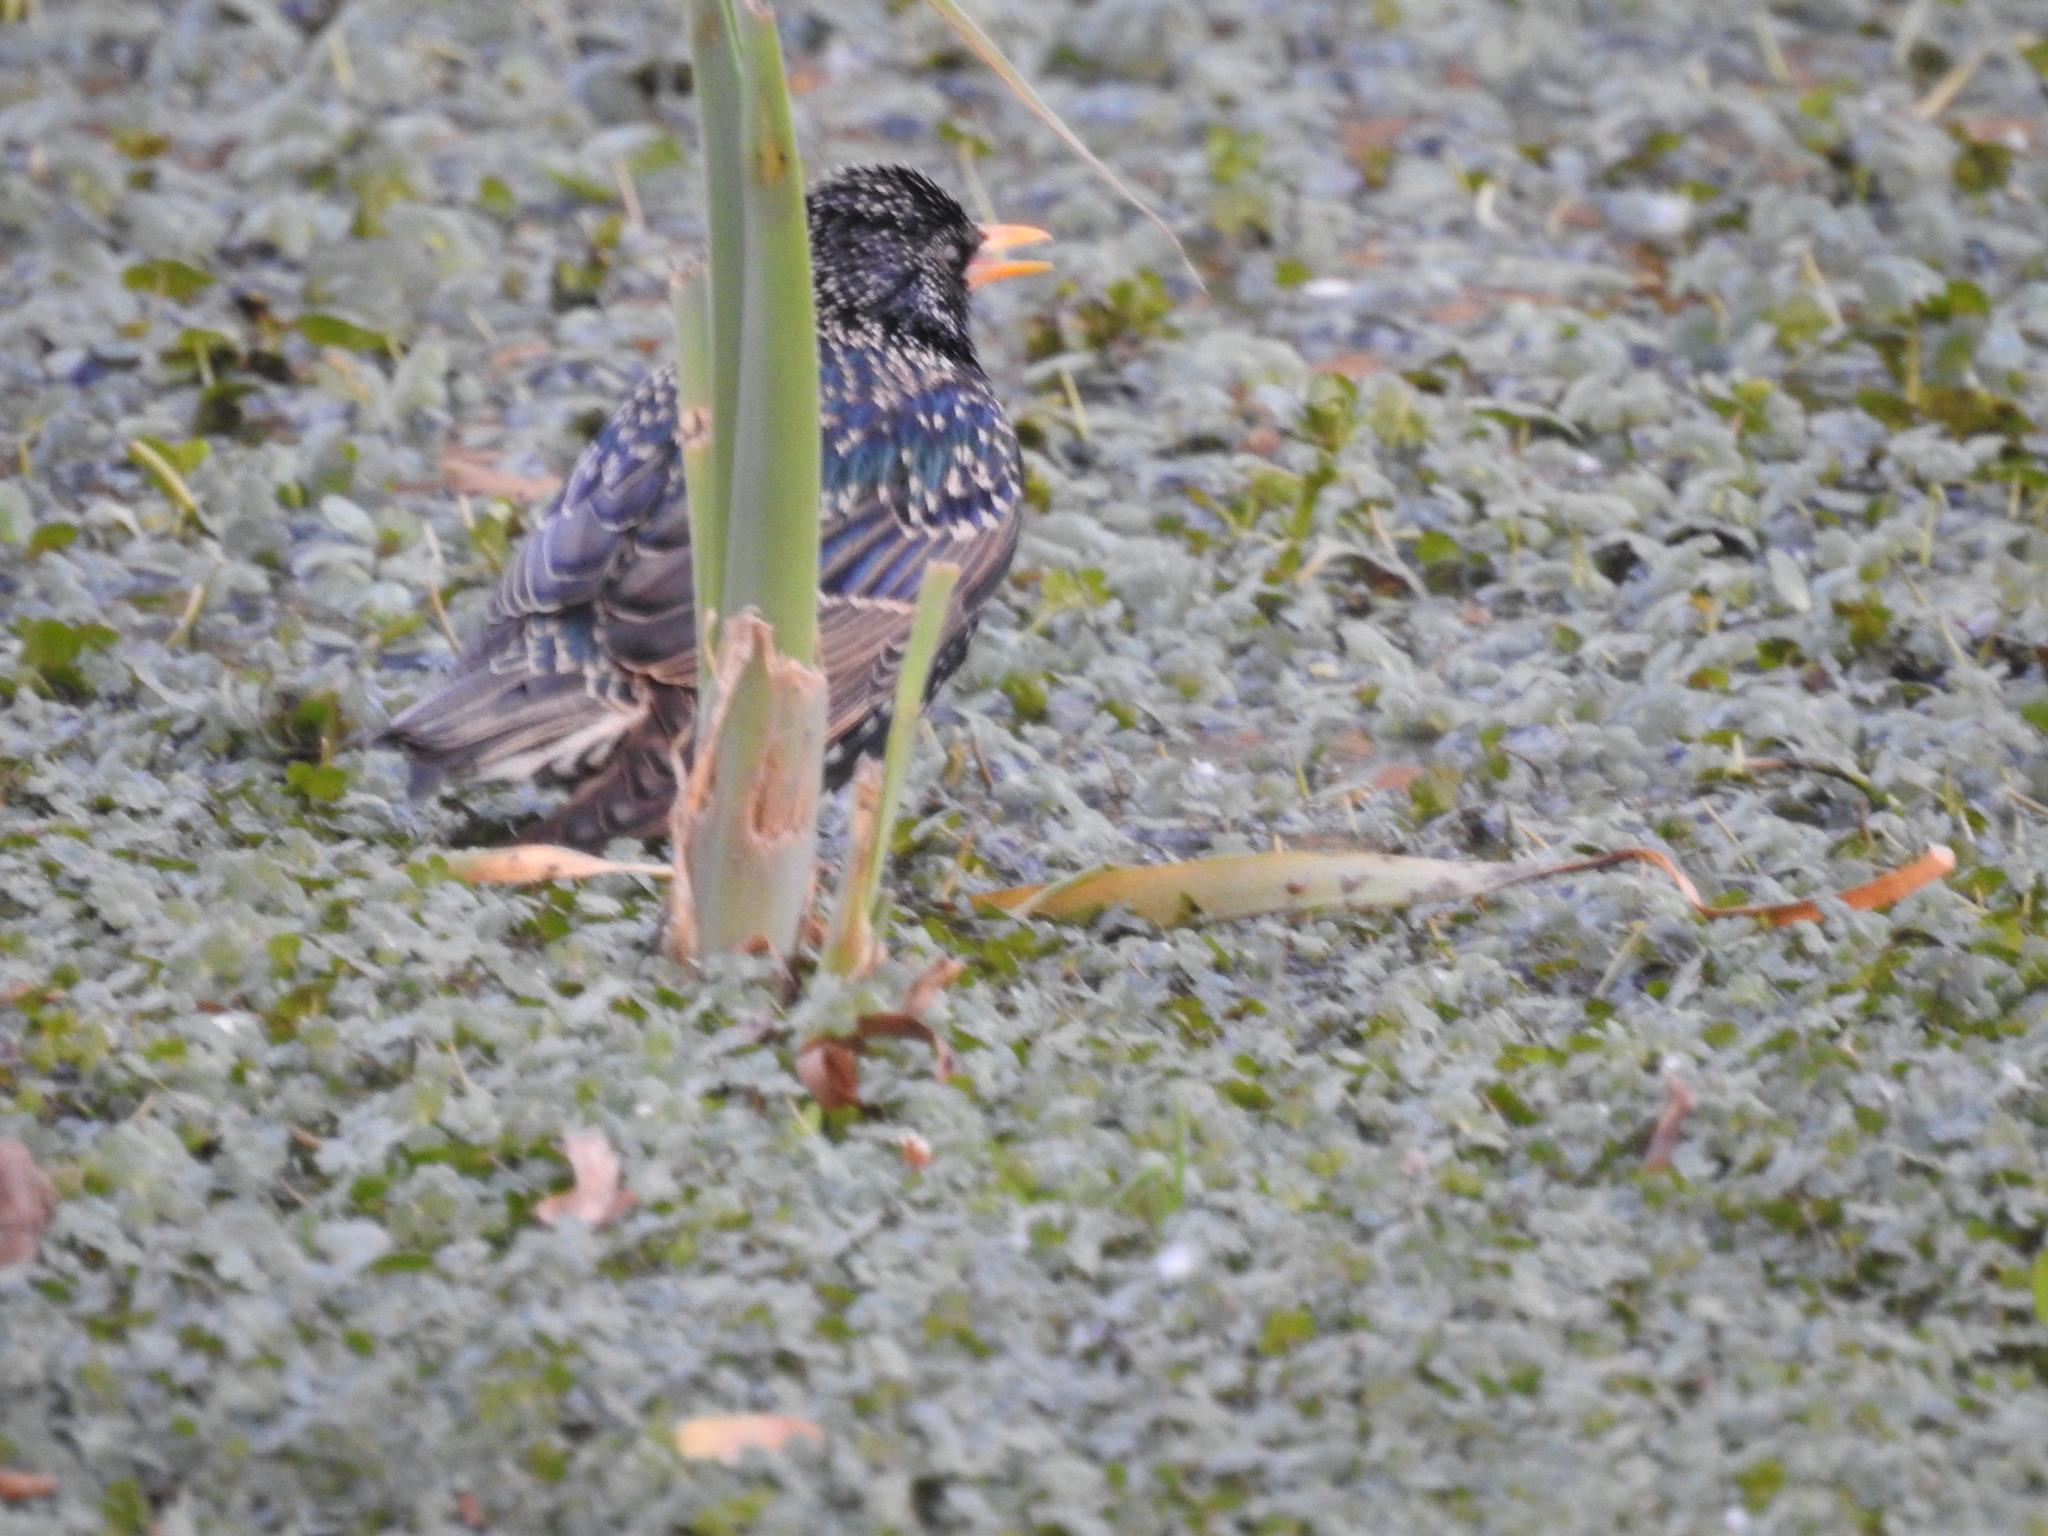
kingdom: Animalia
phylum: Chordata
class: Aves
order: Passeriformes
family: Sturnidae
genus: Sturnus
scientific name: Sturnus vulgaris
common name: Common starling
